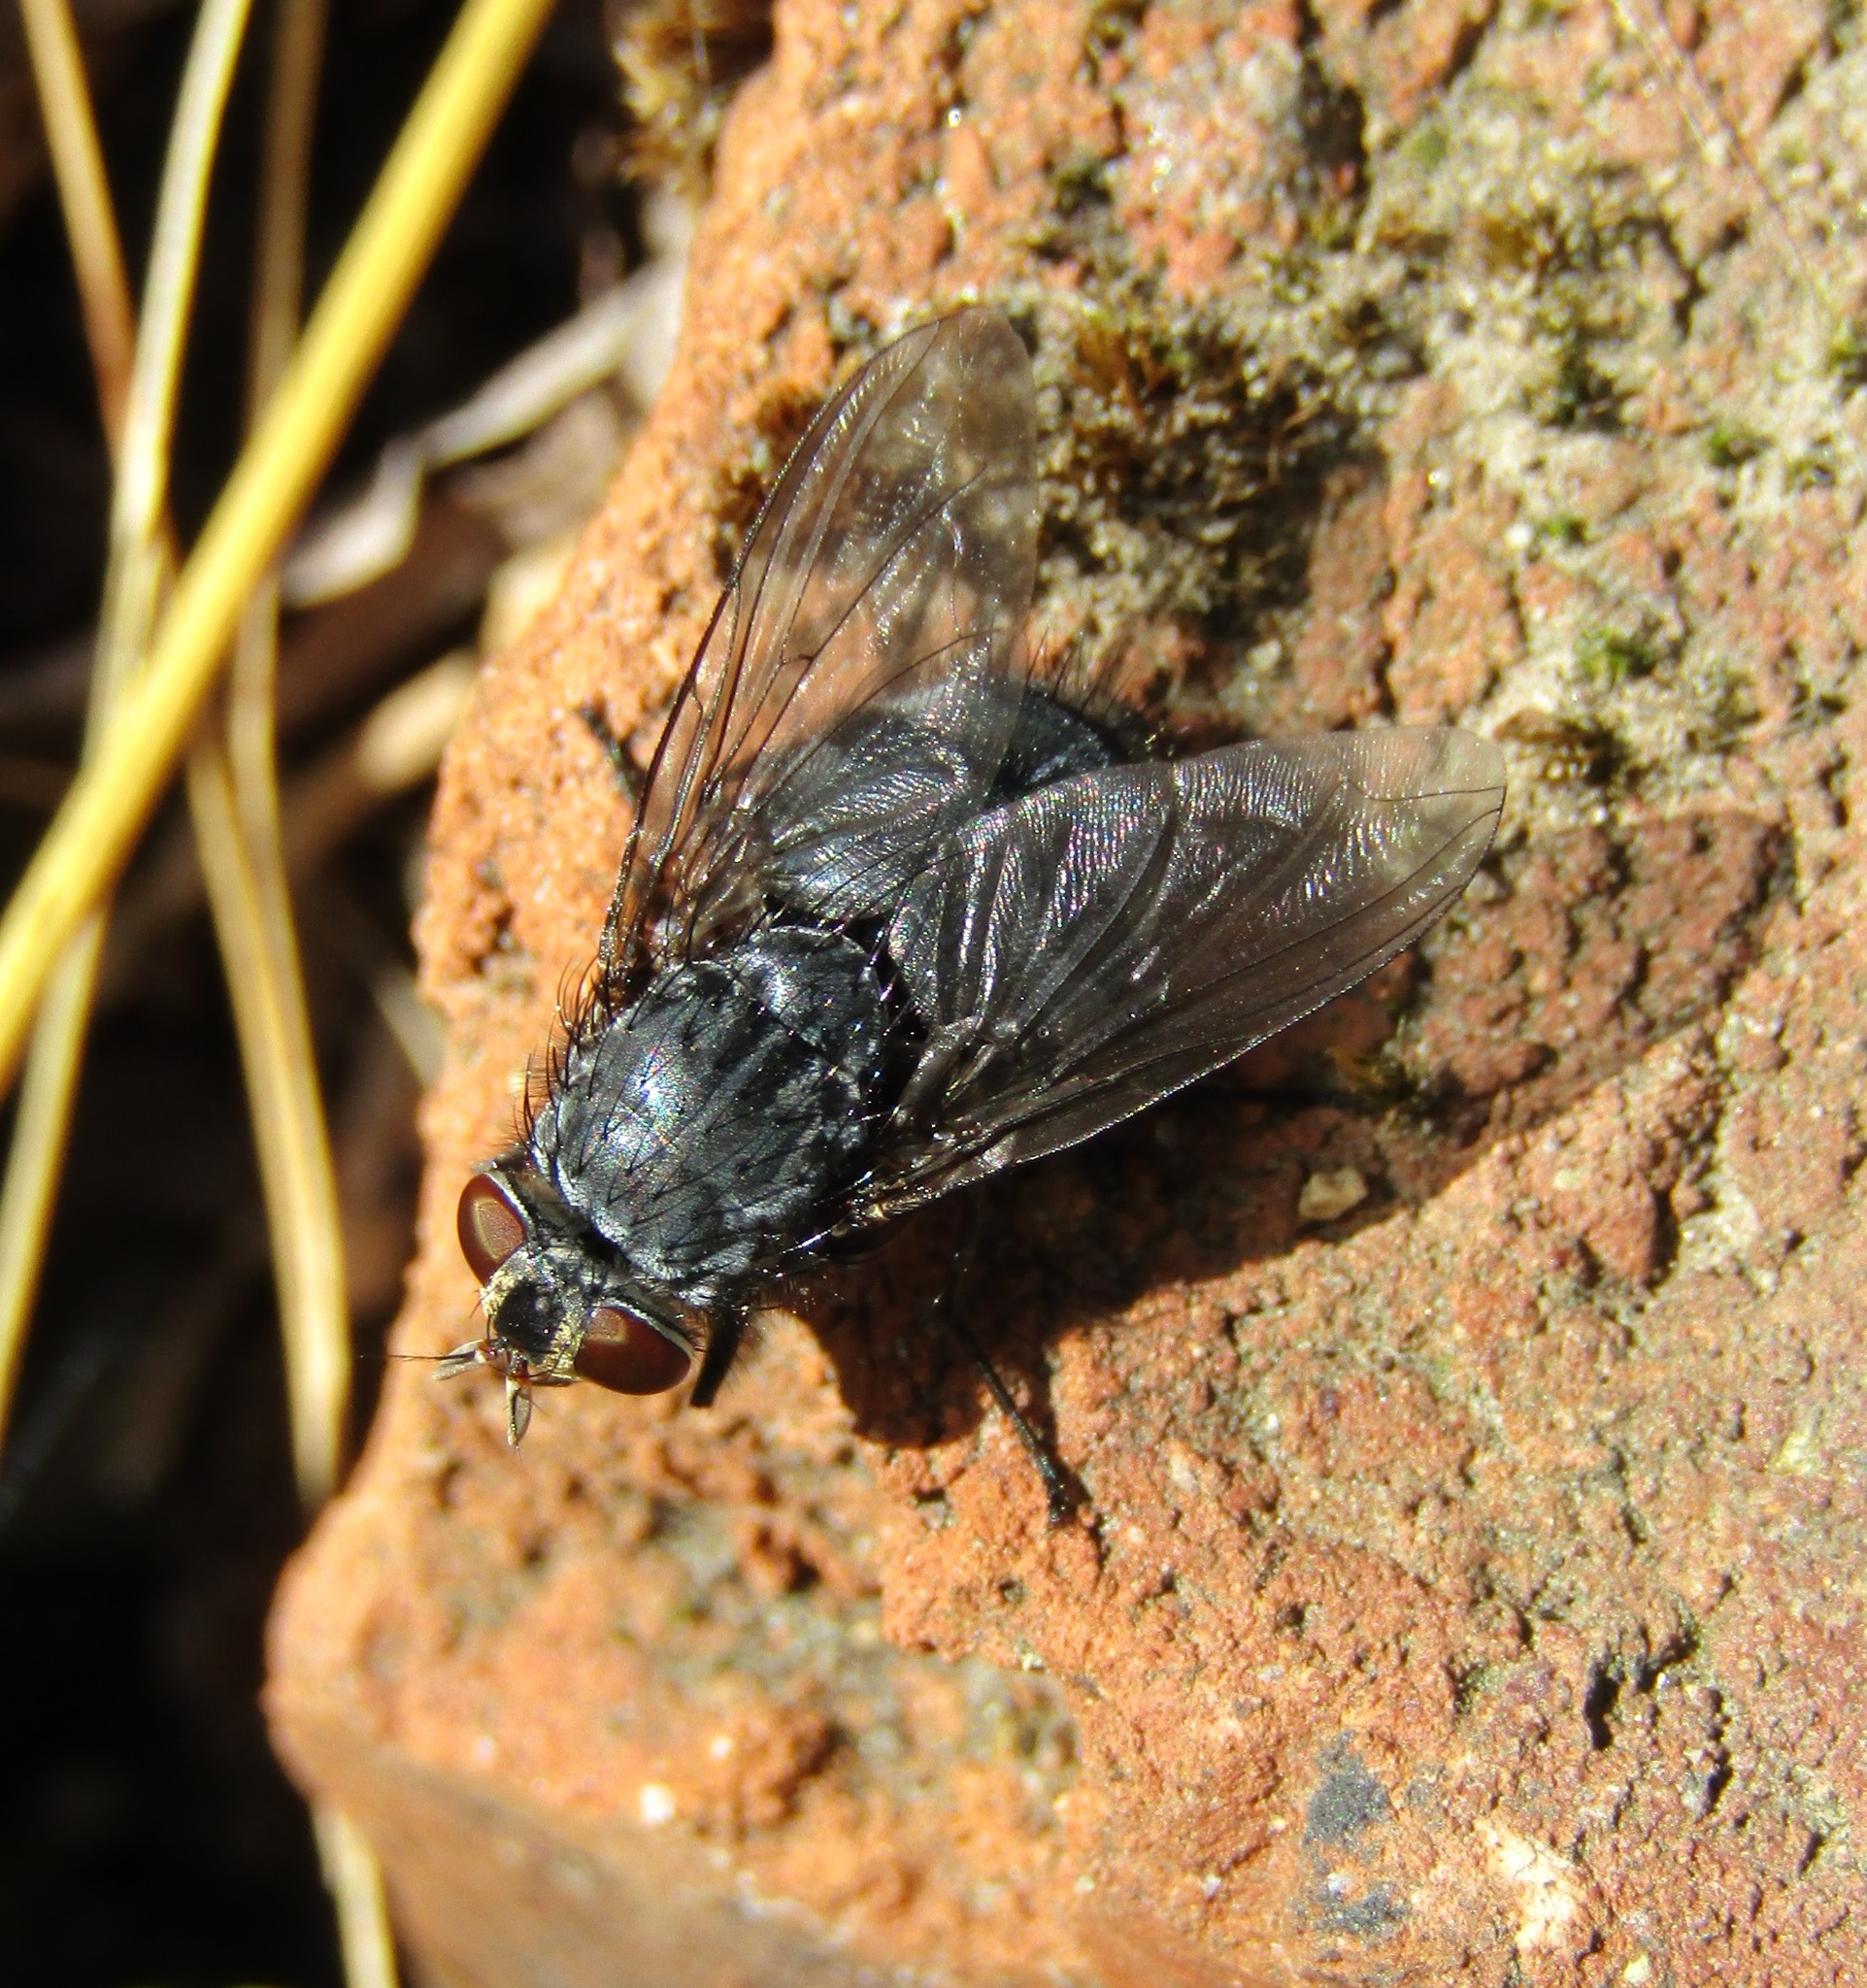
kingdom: Animalia
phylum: Arthropoda
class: Insecta
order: Diptera
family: Calliphoridae
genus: Calliphora
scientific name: Calliphora vicina
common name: Common blow flie
